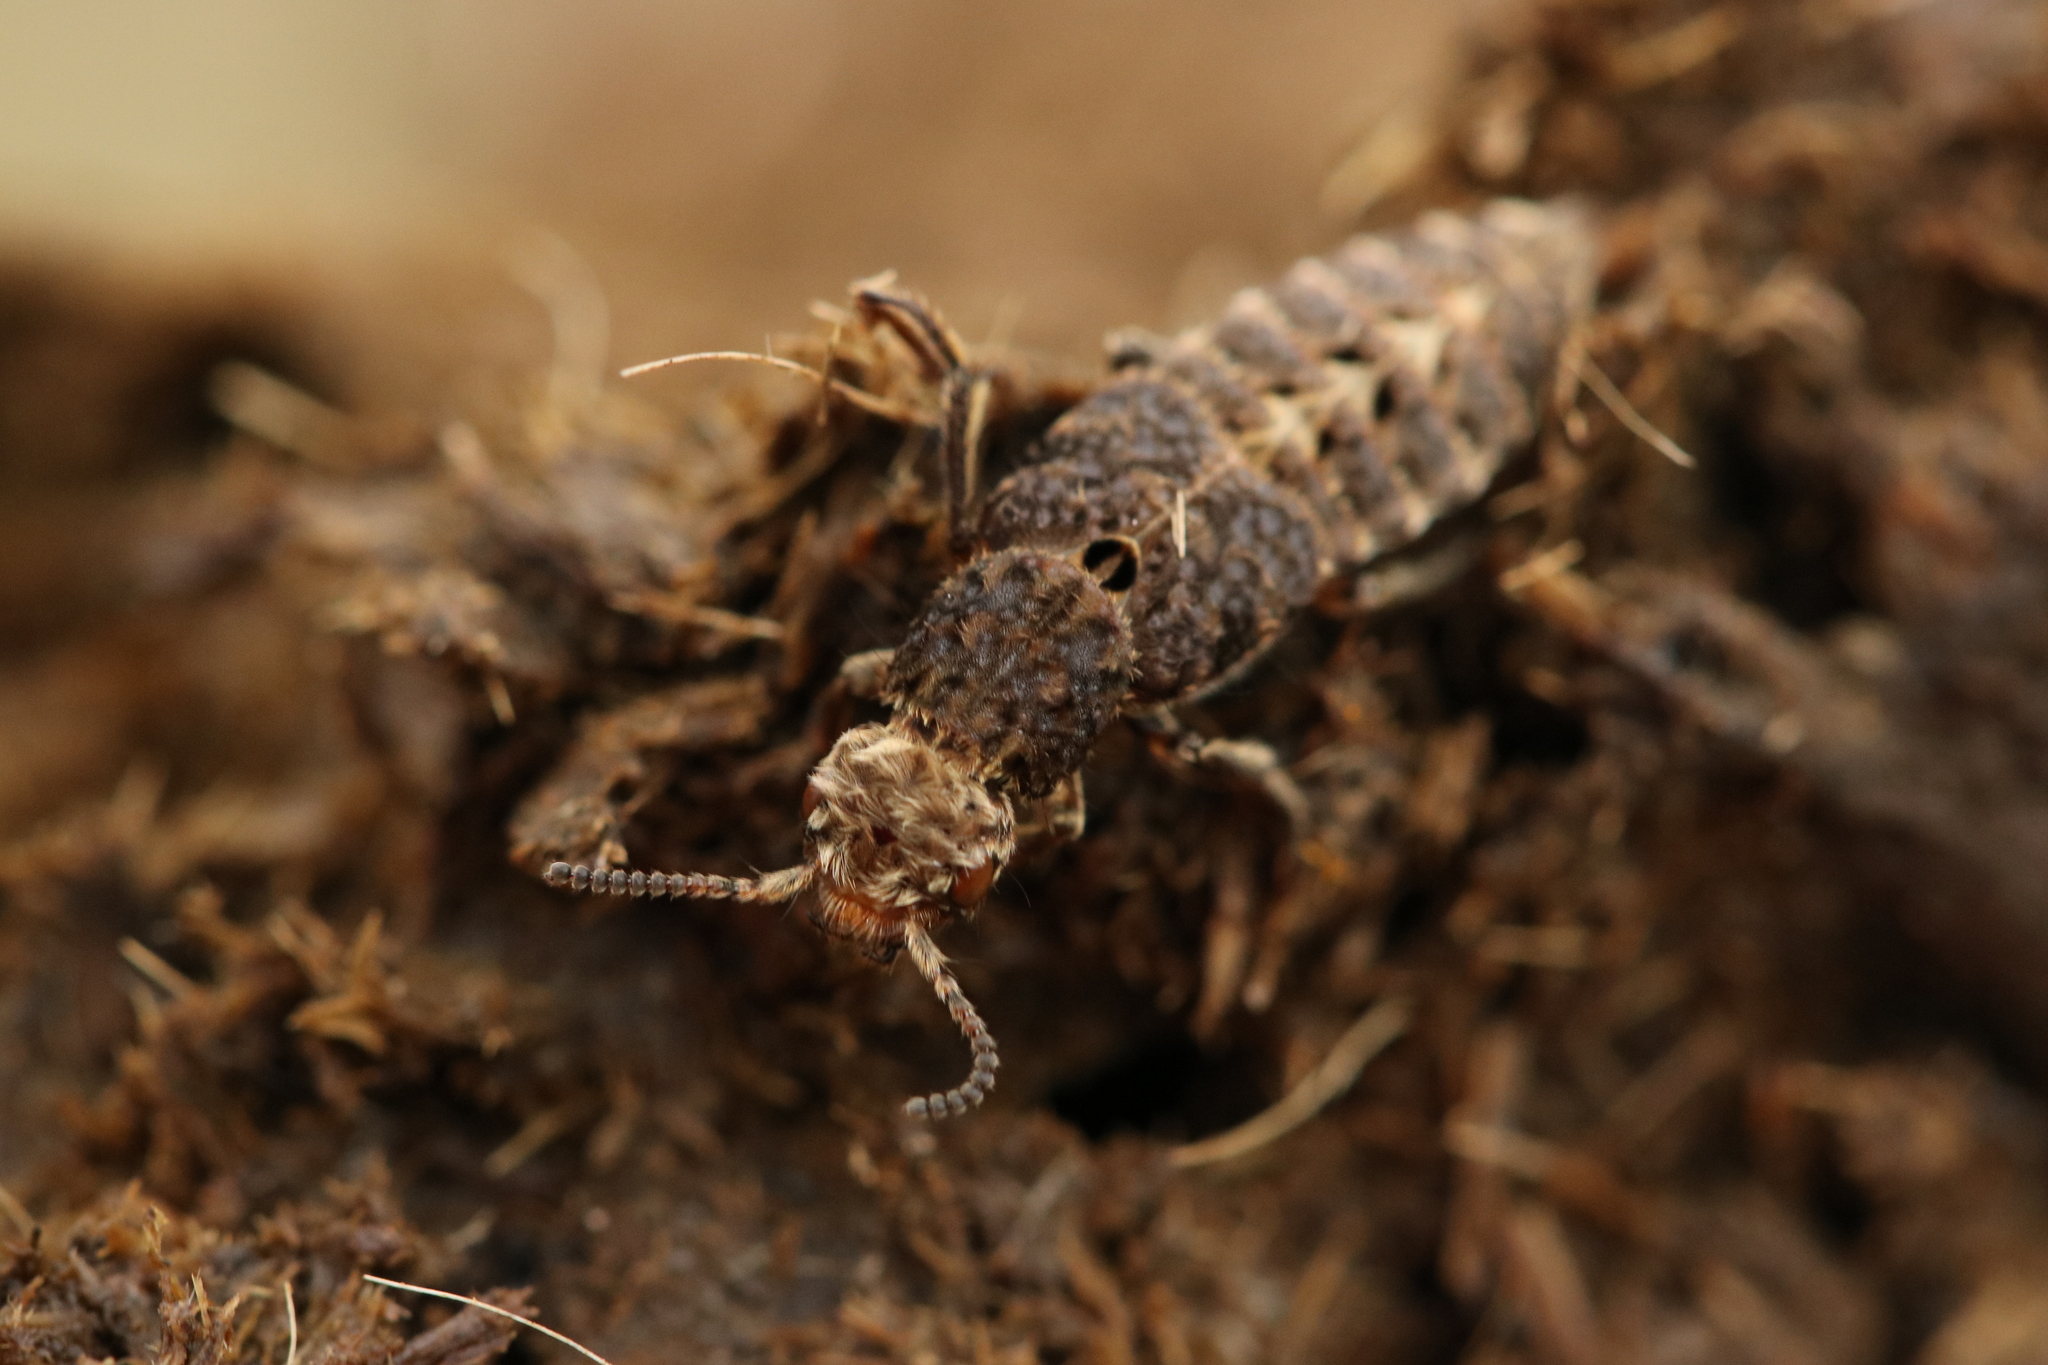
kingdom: Animalia
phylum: Arthropoda
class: Insecta
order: Coleoptera
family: Staphylinidae
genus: Dinothenarus
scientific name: Dinothenarus pubescens
